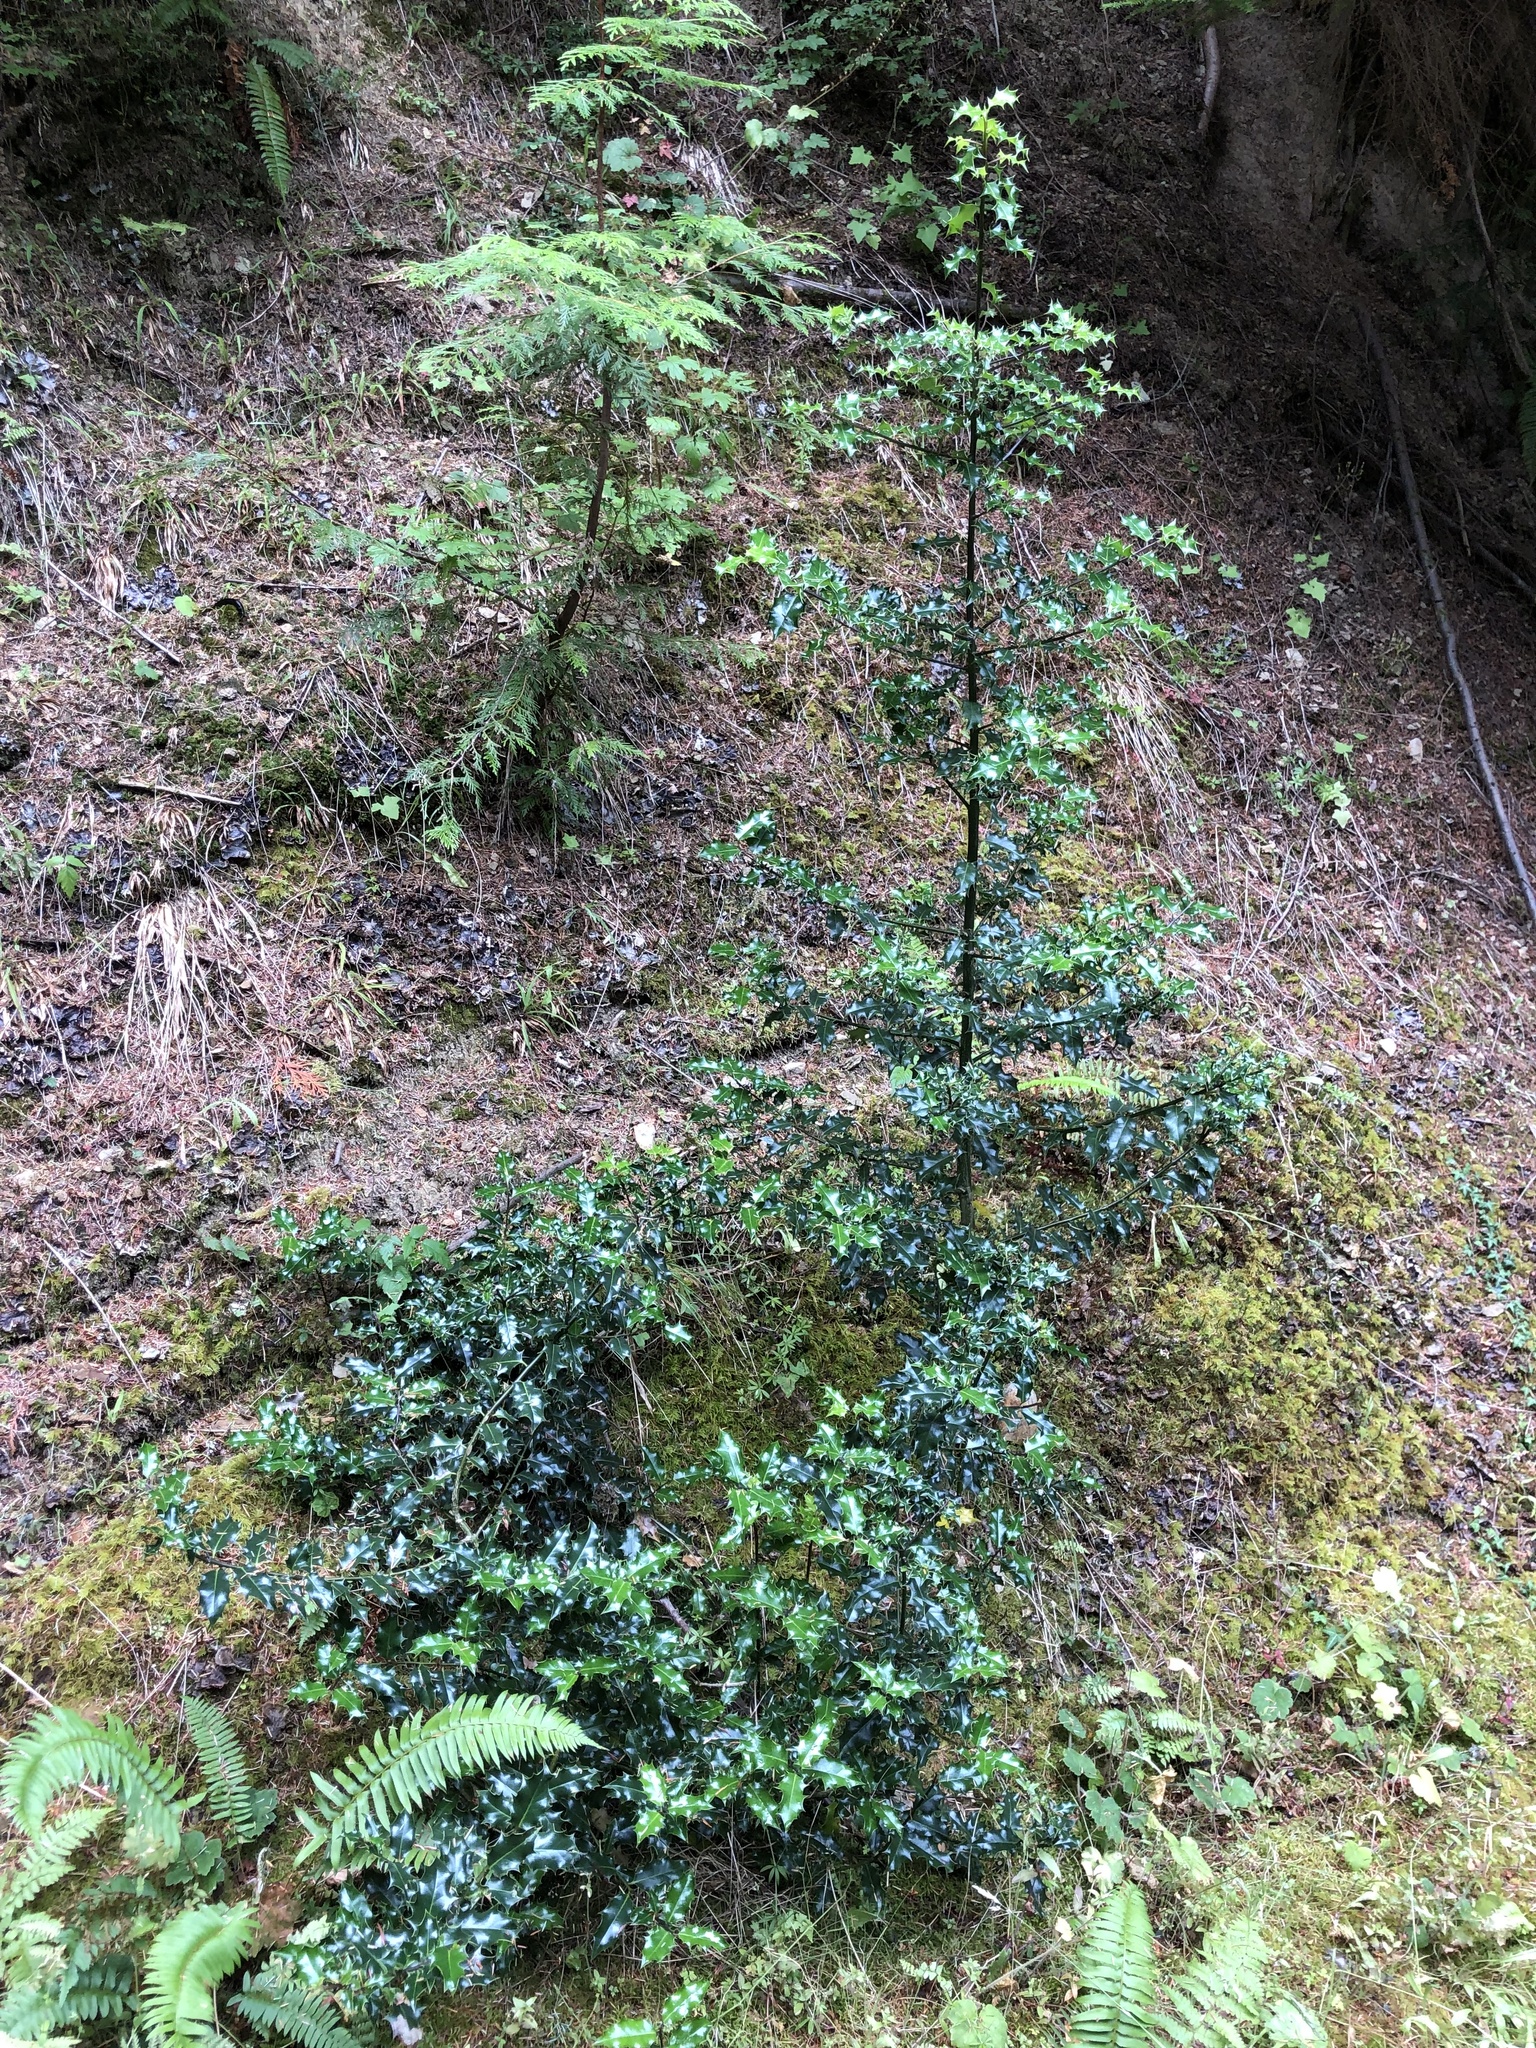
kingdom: Plantae
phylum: Tracheophyta
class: Magnoliopsida
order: Aquifoliales
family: Aquifoliaceae
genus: Ilex
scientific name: Ilex aquifolium
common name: English holly
